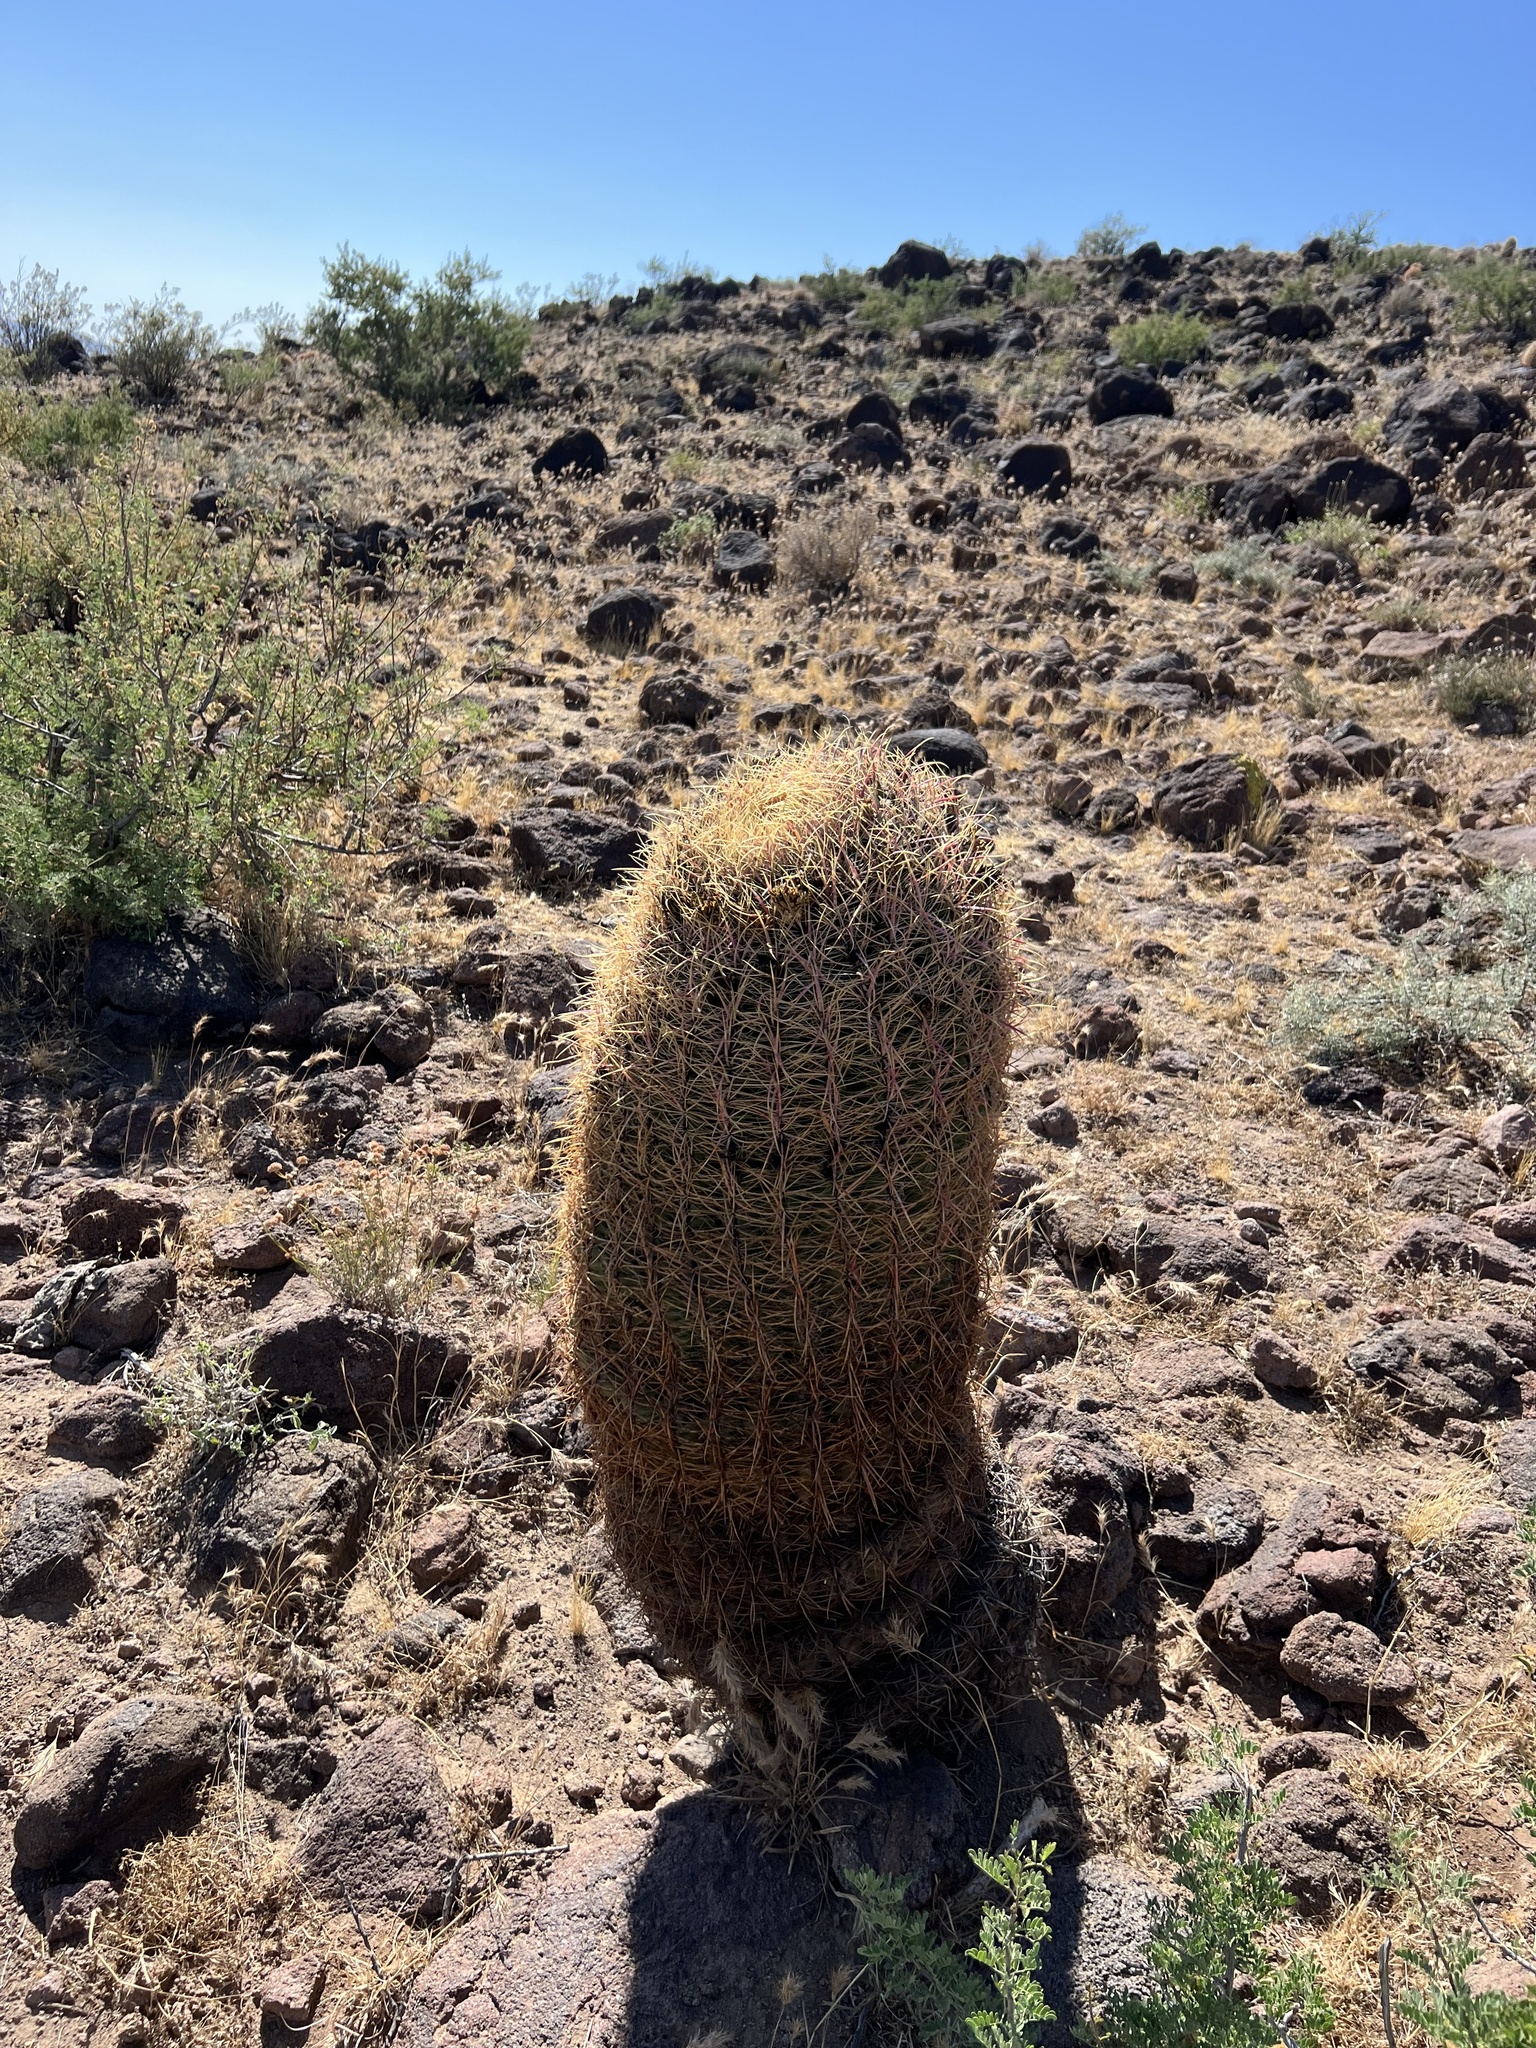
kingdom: Plantae
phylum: Tracheophyta
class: Magnoliopsida
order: Caryophyllales
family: Cactaceae
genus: Ferocactus
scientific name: Ferocactus cylindraceus
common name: California barrel cactus
